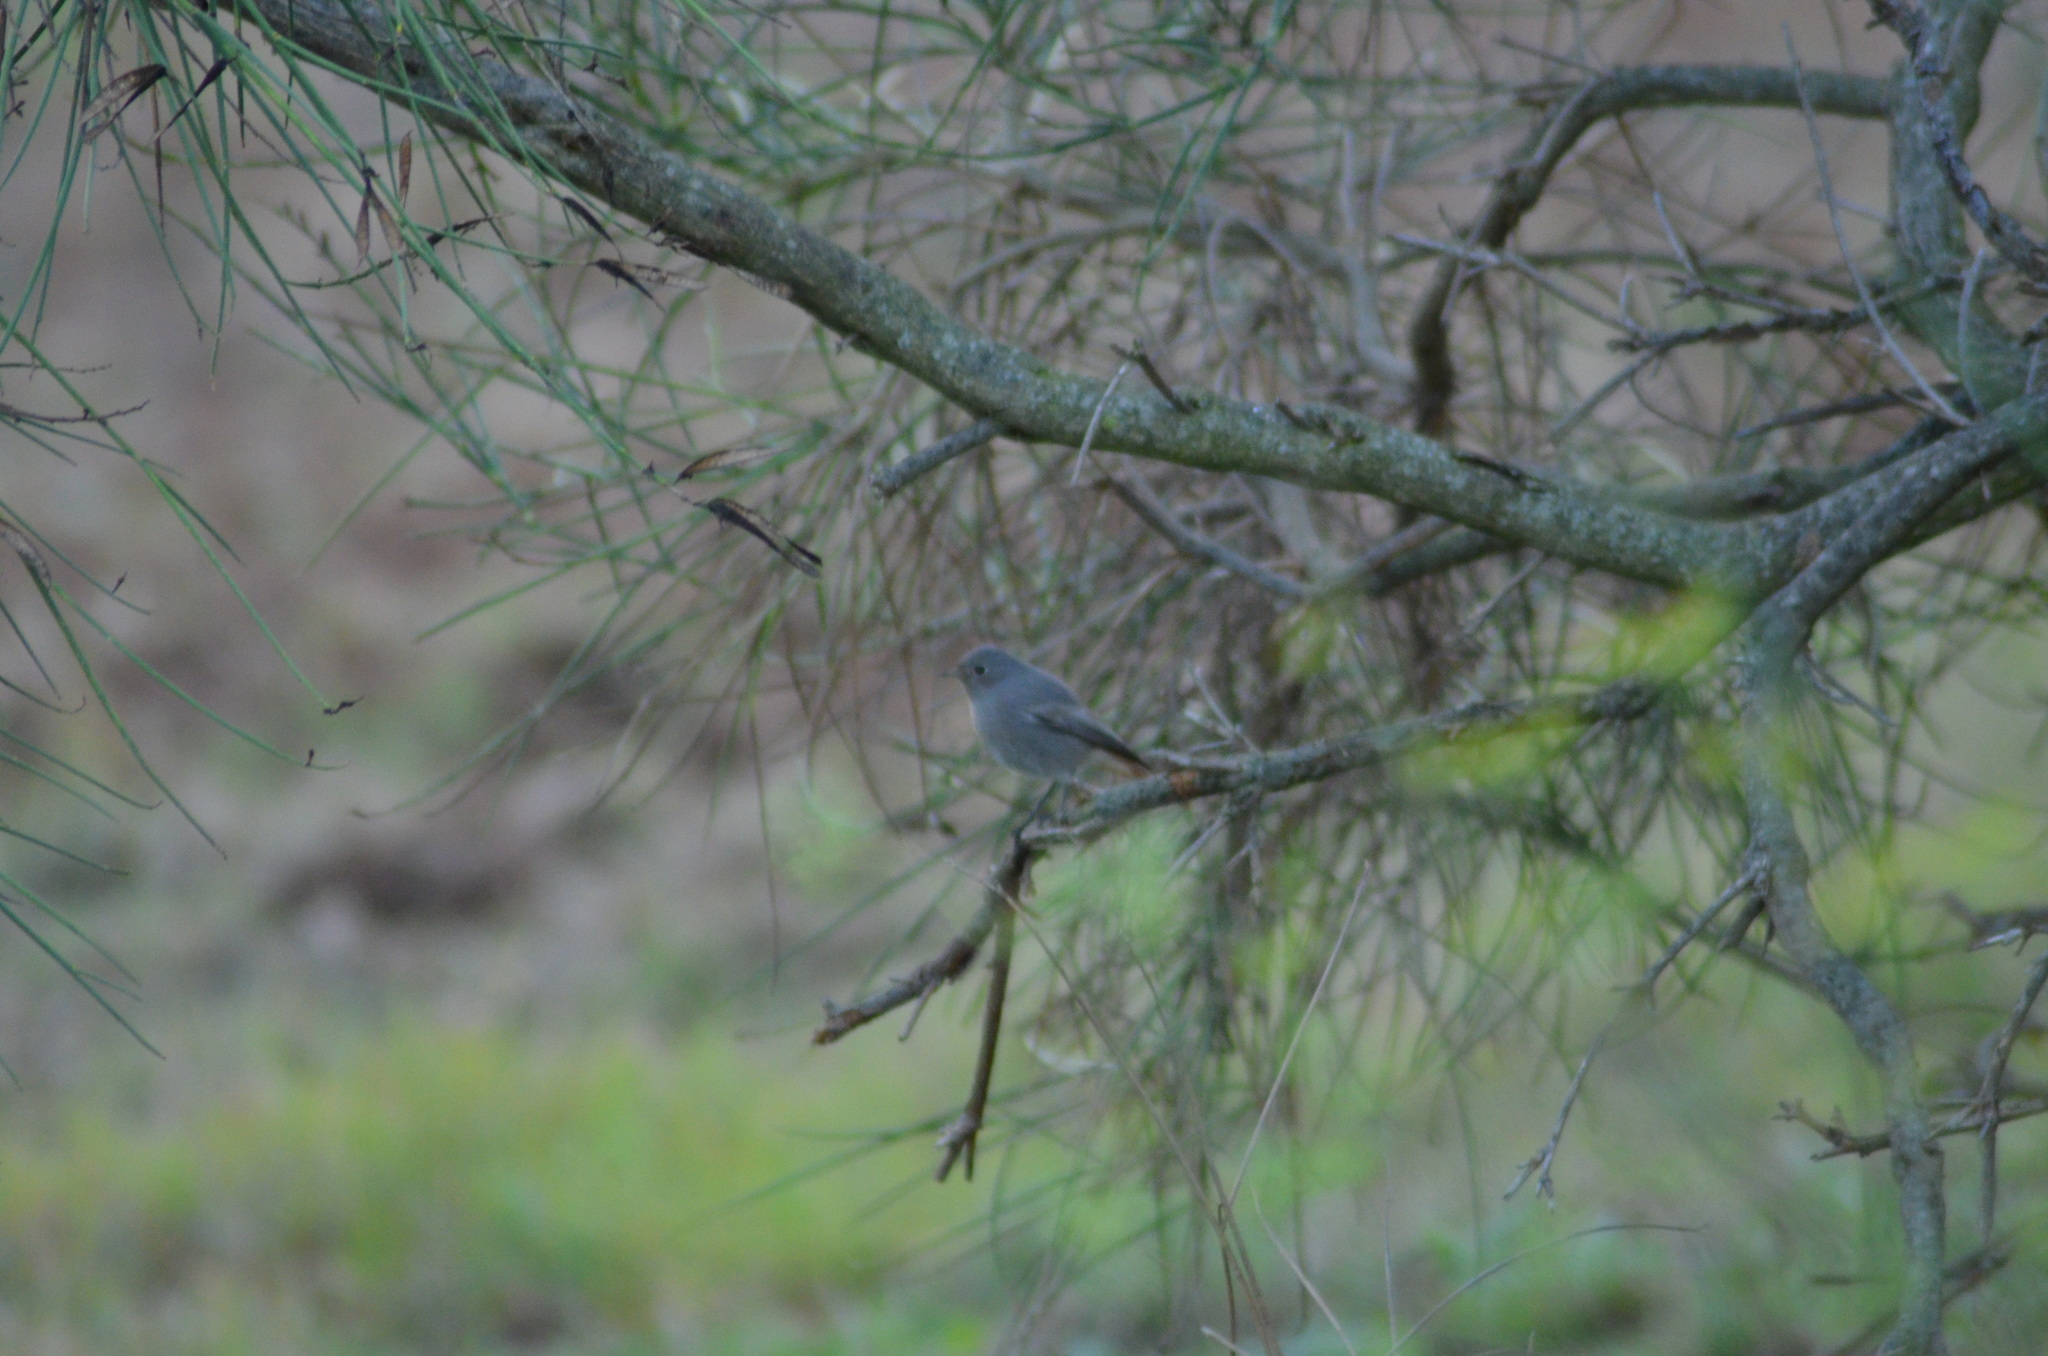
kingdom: Animalia
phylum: Chordata
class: Aves
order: Passeriformes
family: Muscicapidae
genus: Phoenicurus
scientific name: Phoenicurus ochruros
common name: Black redstart
